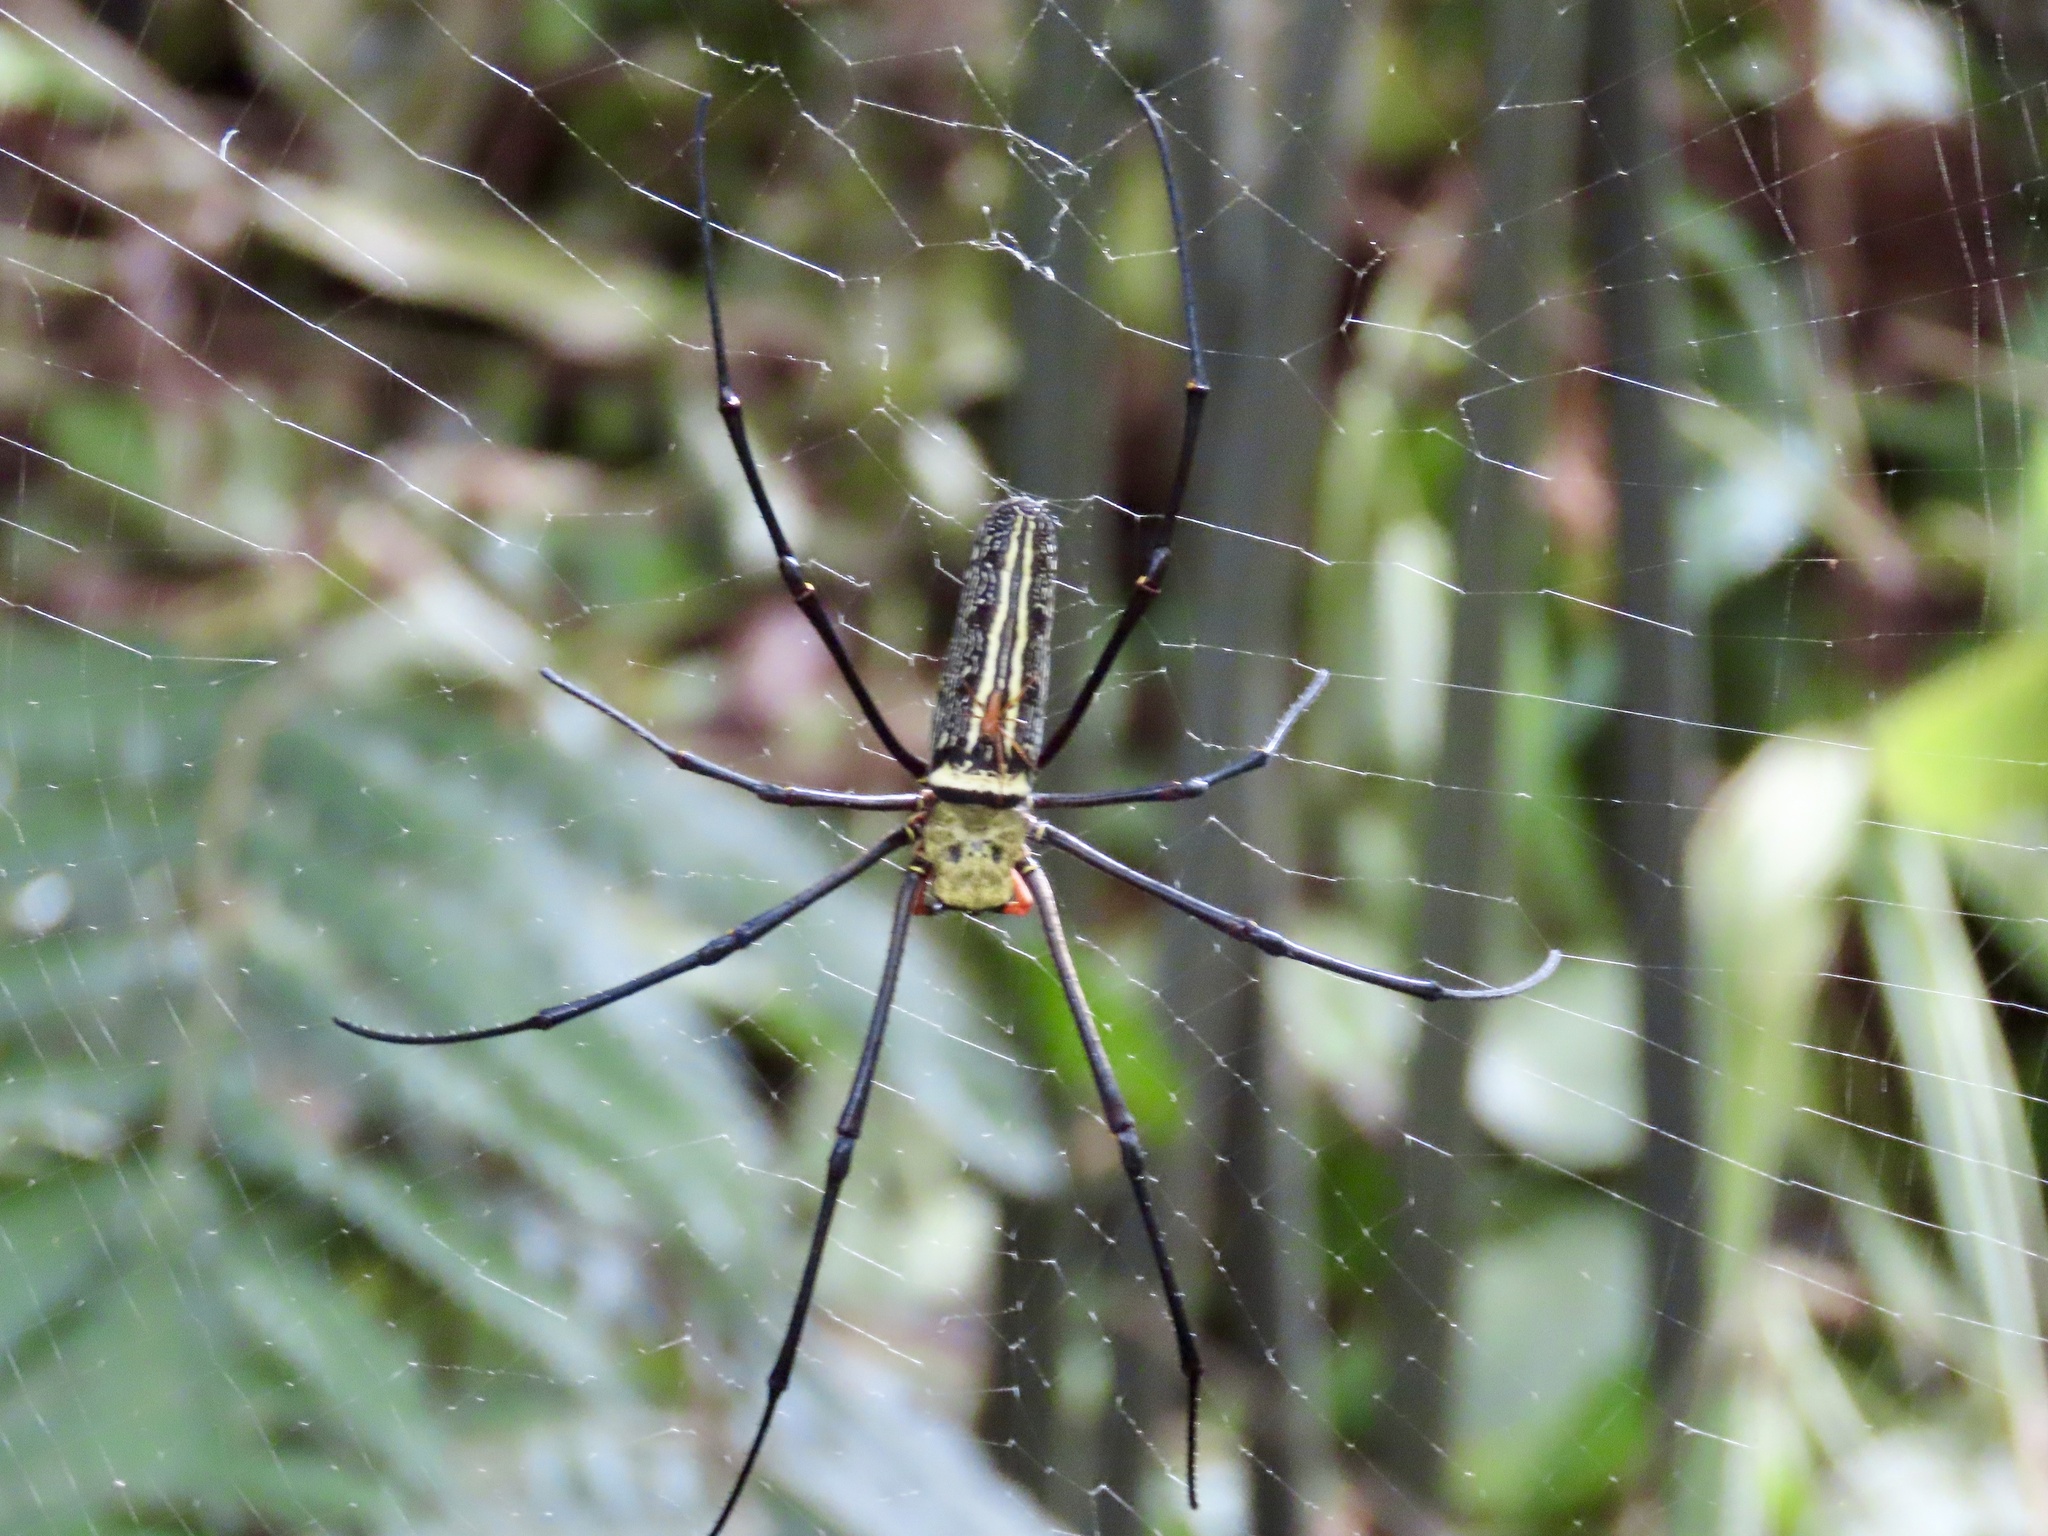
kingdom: Animalia
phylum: Arthropoda
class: Arachnida
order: Araneae
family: Araneidae
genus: Nephila
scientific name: Nephila pilipes
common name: Giant golden orb weaver
